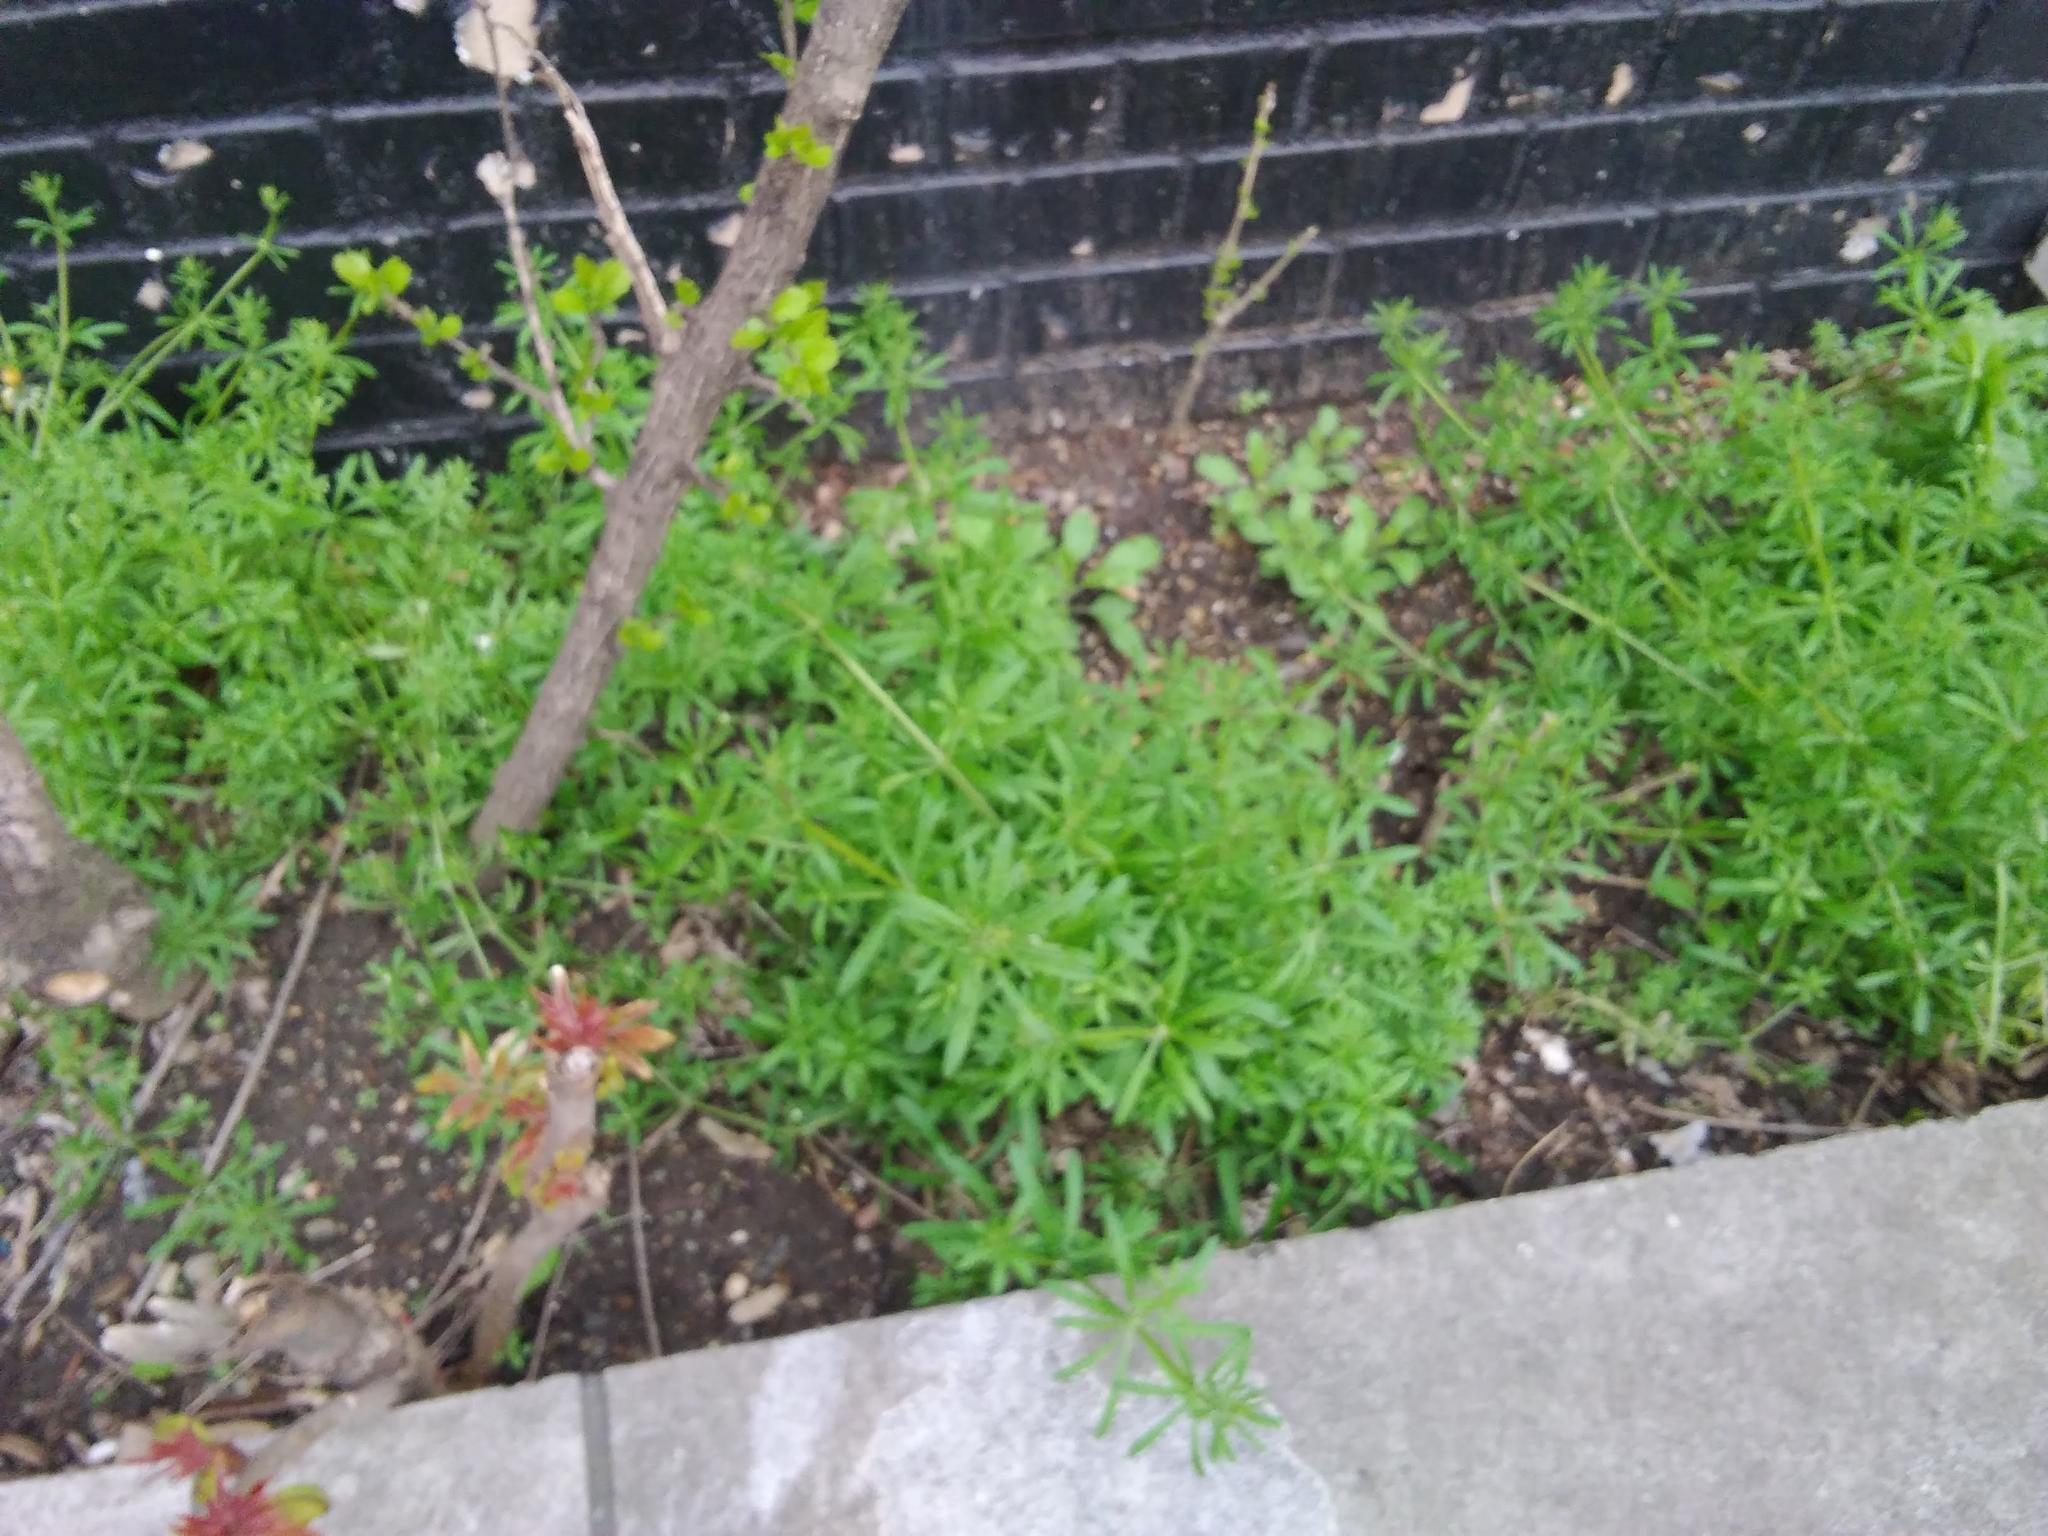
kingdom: Plantae
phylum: Tracheophyta
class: Magnoliopsida
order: Gentianales
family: Rubiaceae
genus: Galium
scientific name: Galium aparine
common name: Cleavers
